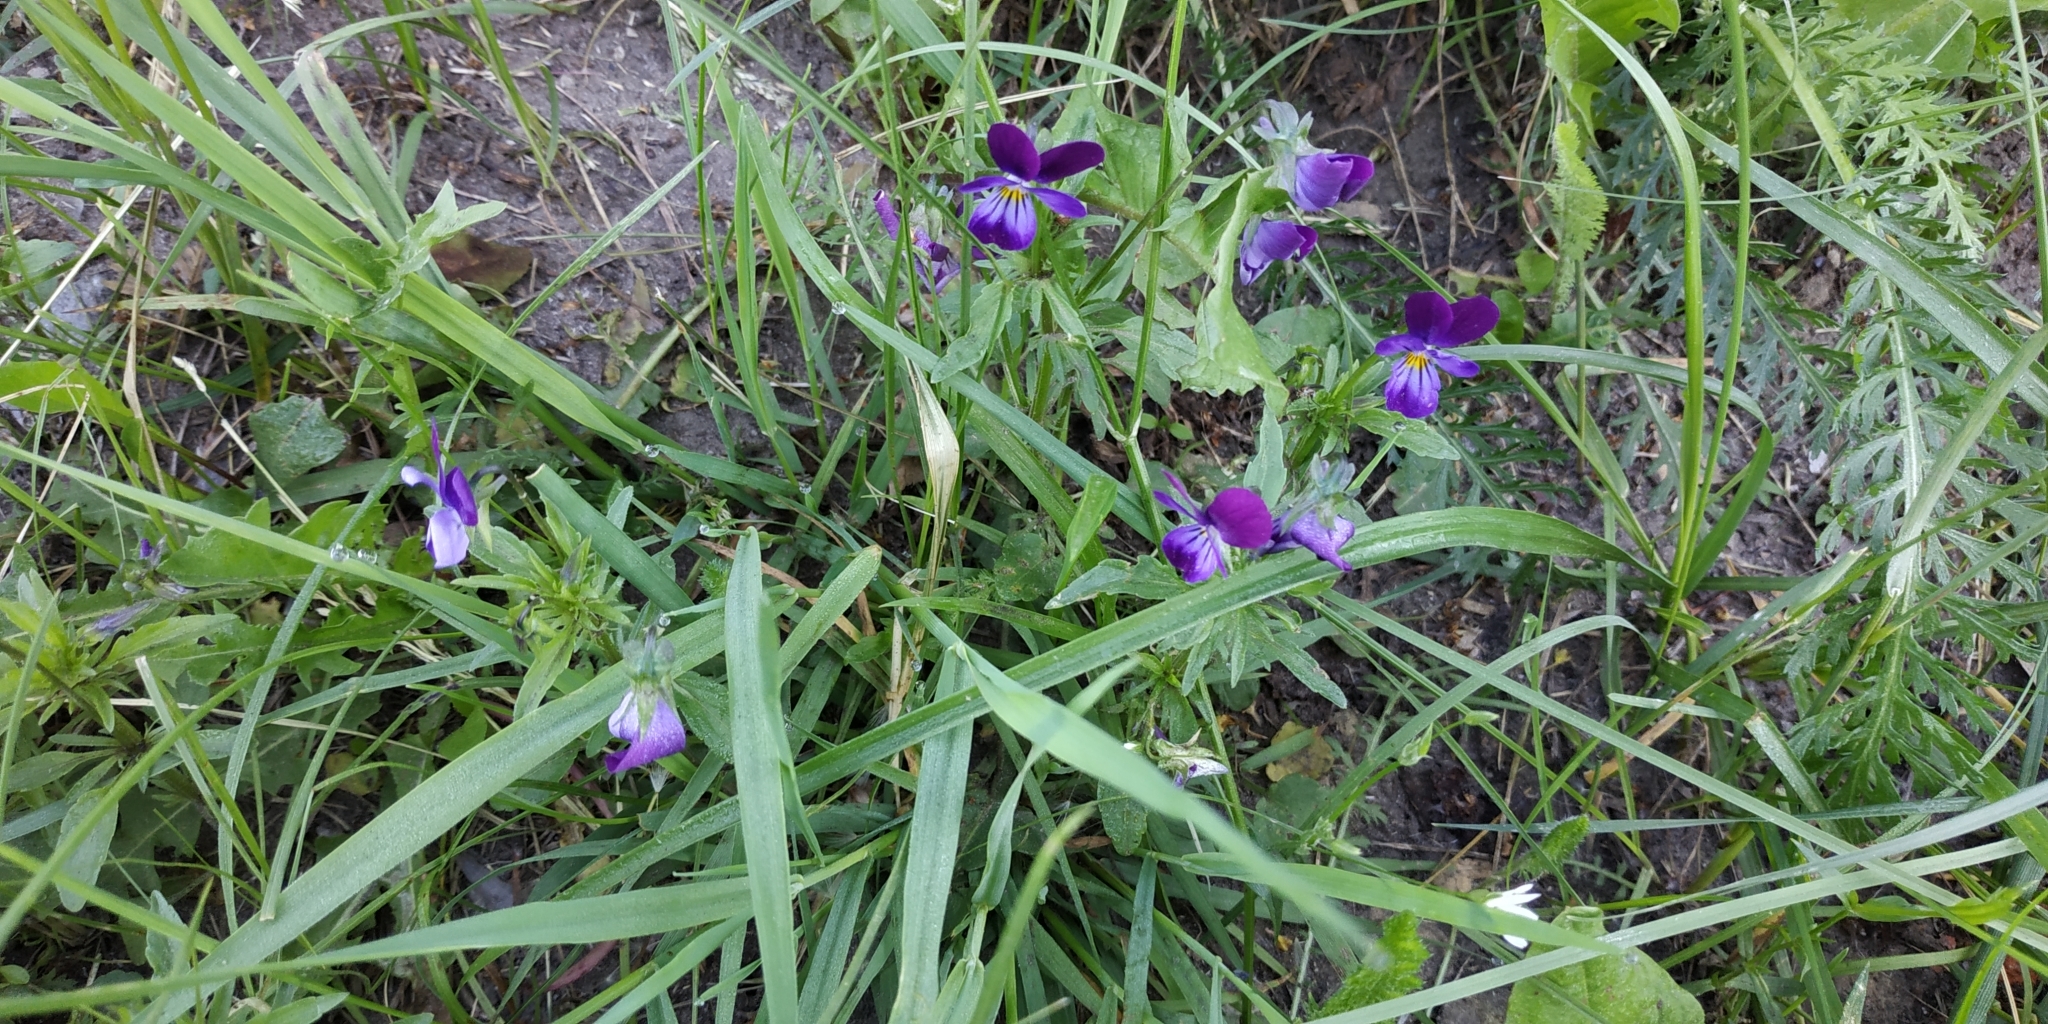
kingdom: Plantae
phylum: Tracheophyta
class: Magnoliopsida
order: Malpighiales
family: Violaceae
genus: Viola
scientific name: Viola tricolor
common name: Pansy
